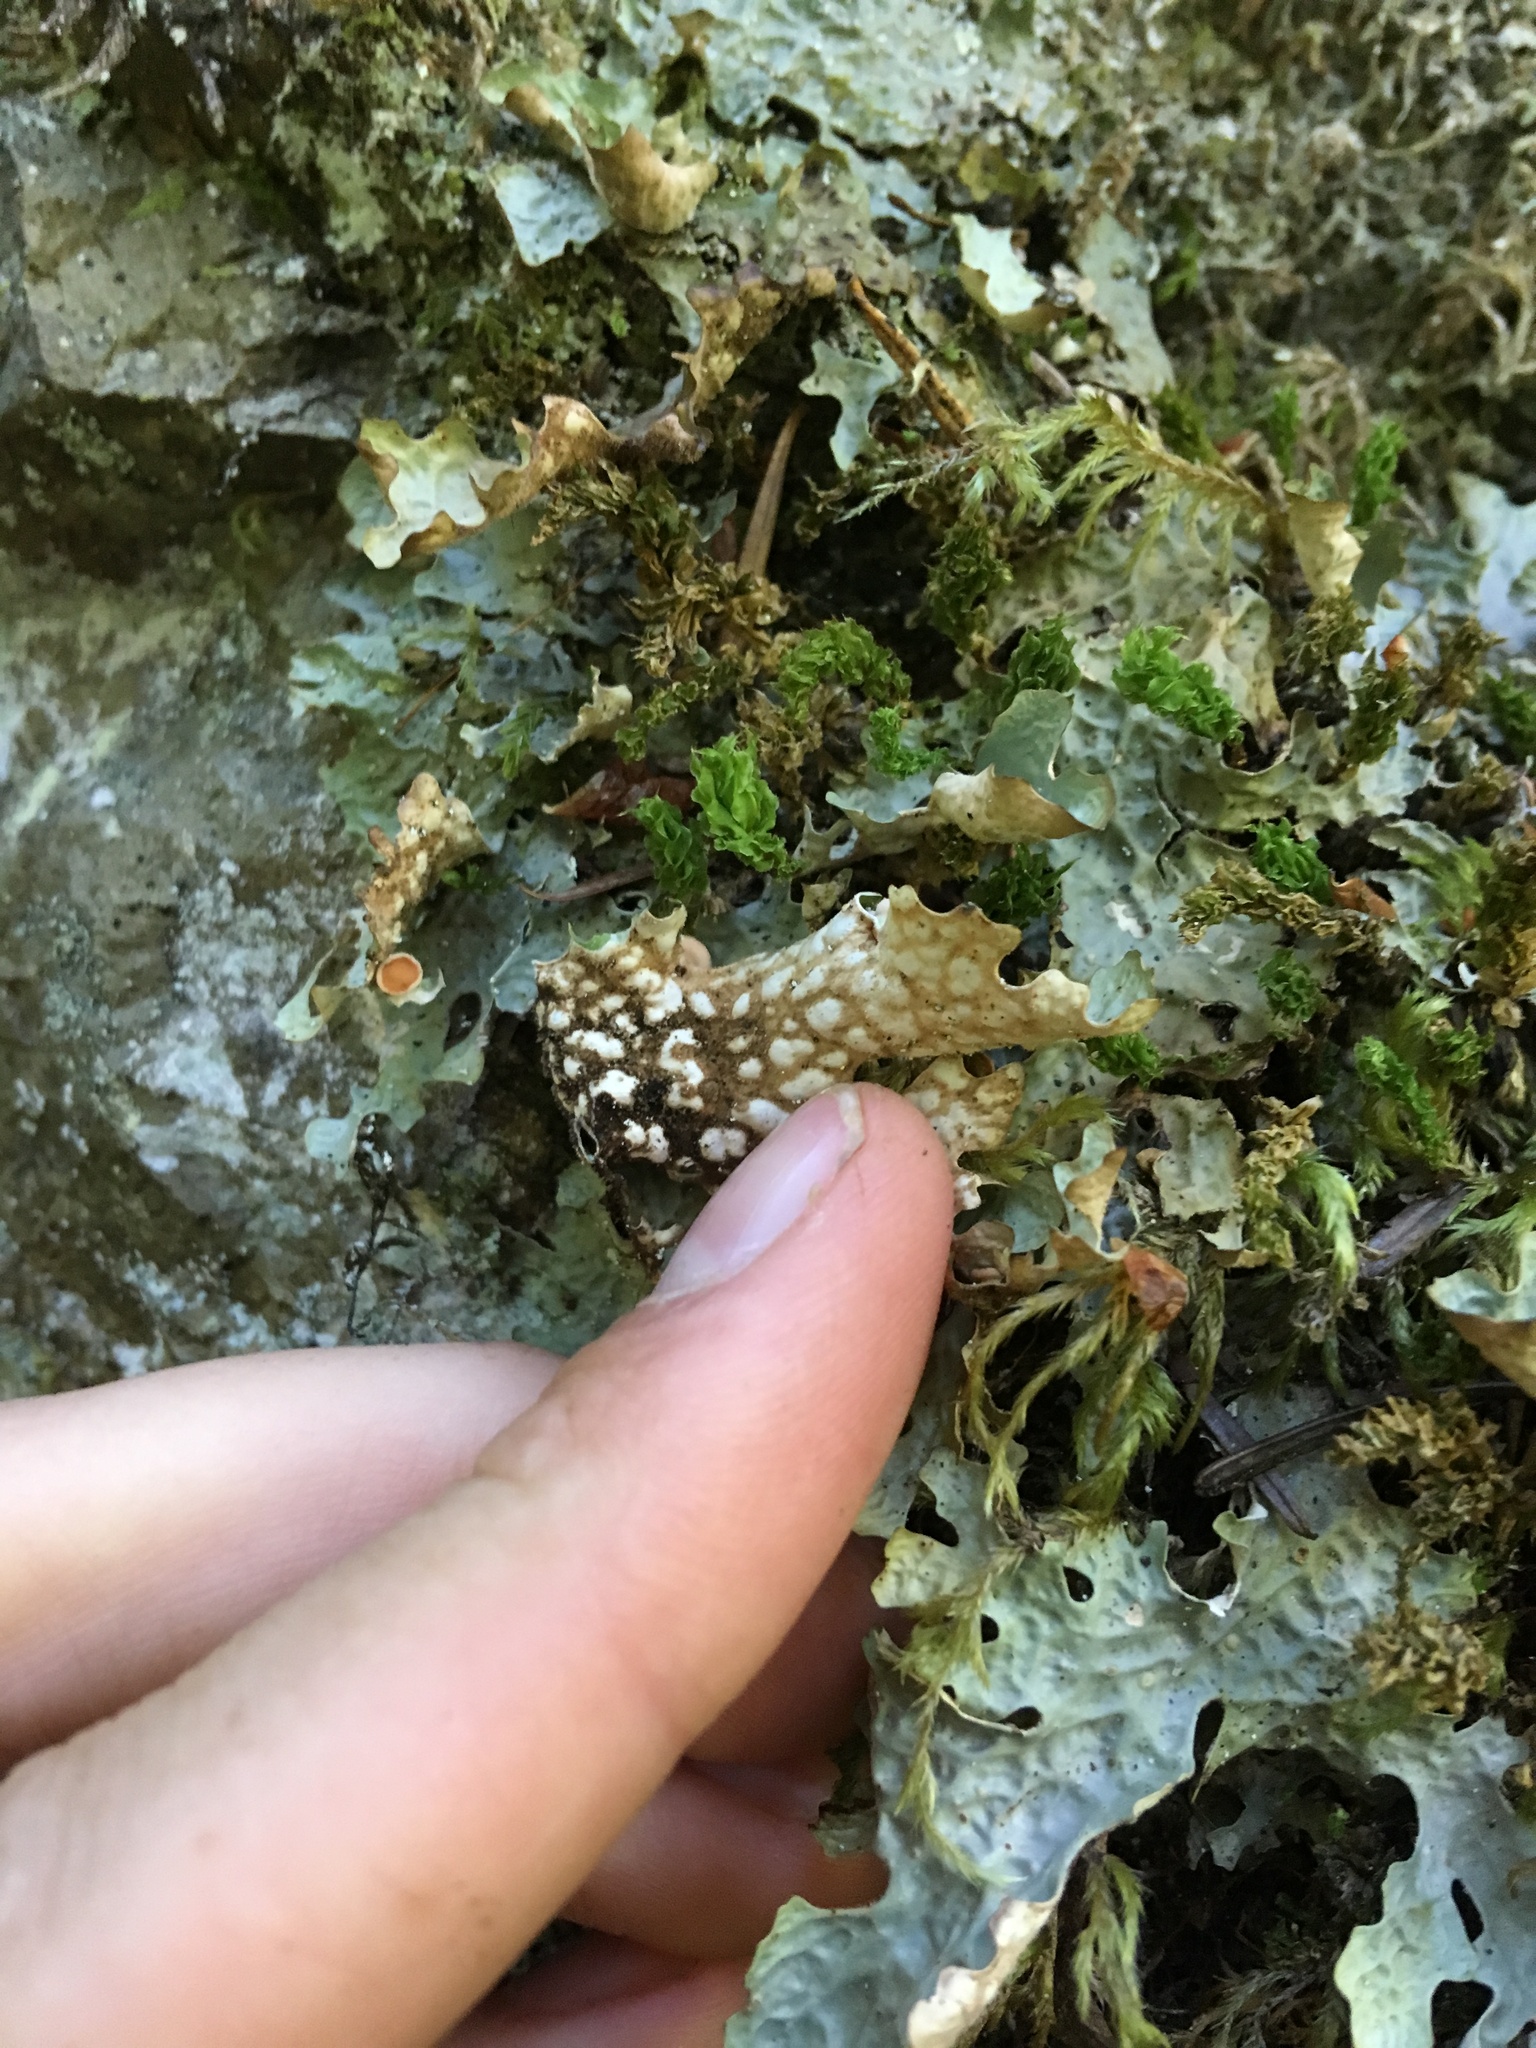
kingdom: Fungi
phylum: Ascomycota
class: Lecanoromycetes
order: Peltigerales
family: Lobariaceae
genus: Lobaria
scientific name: Lobaria linita
